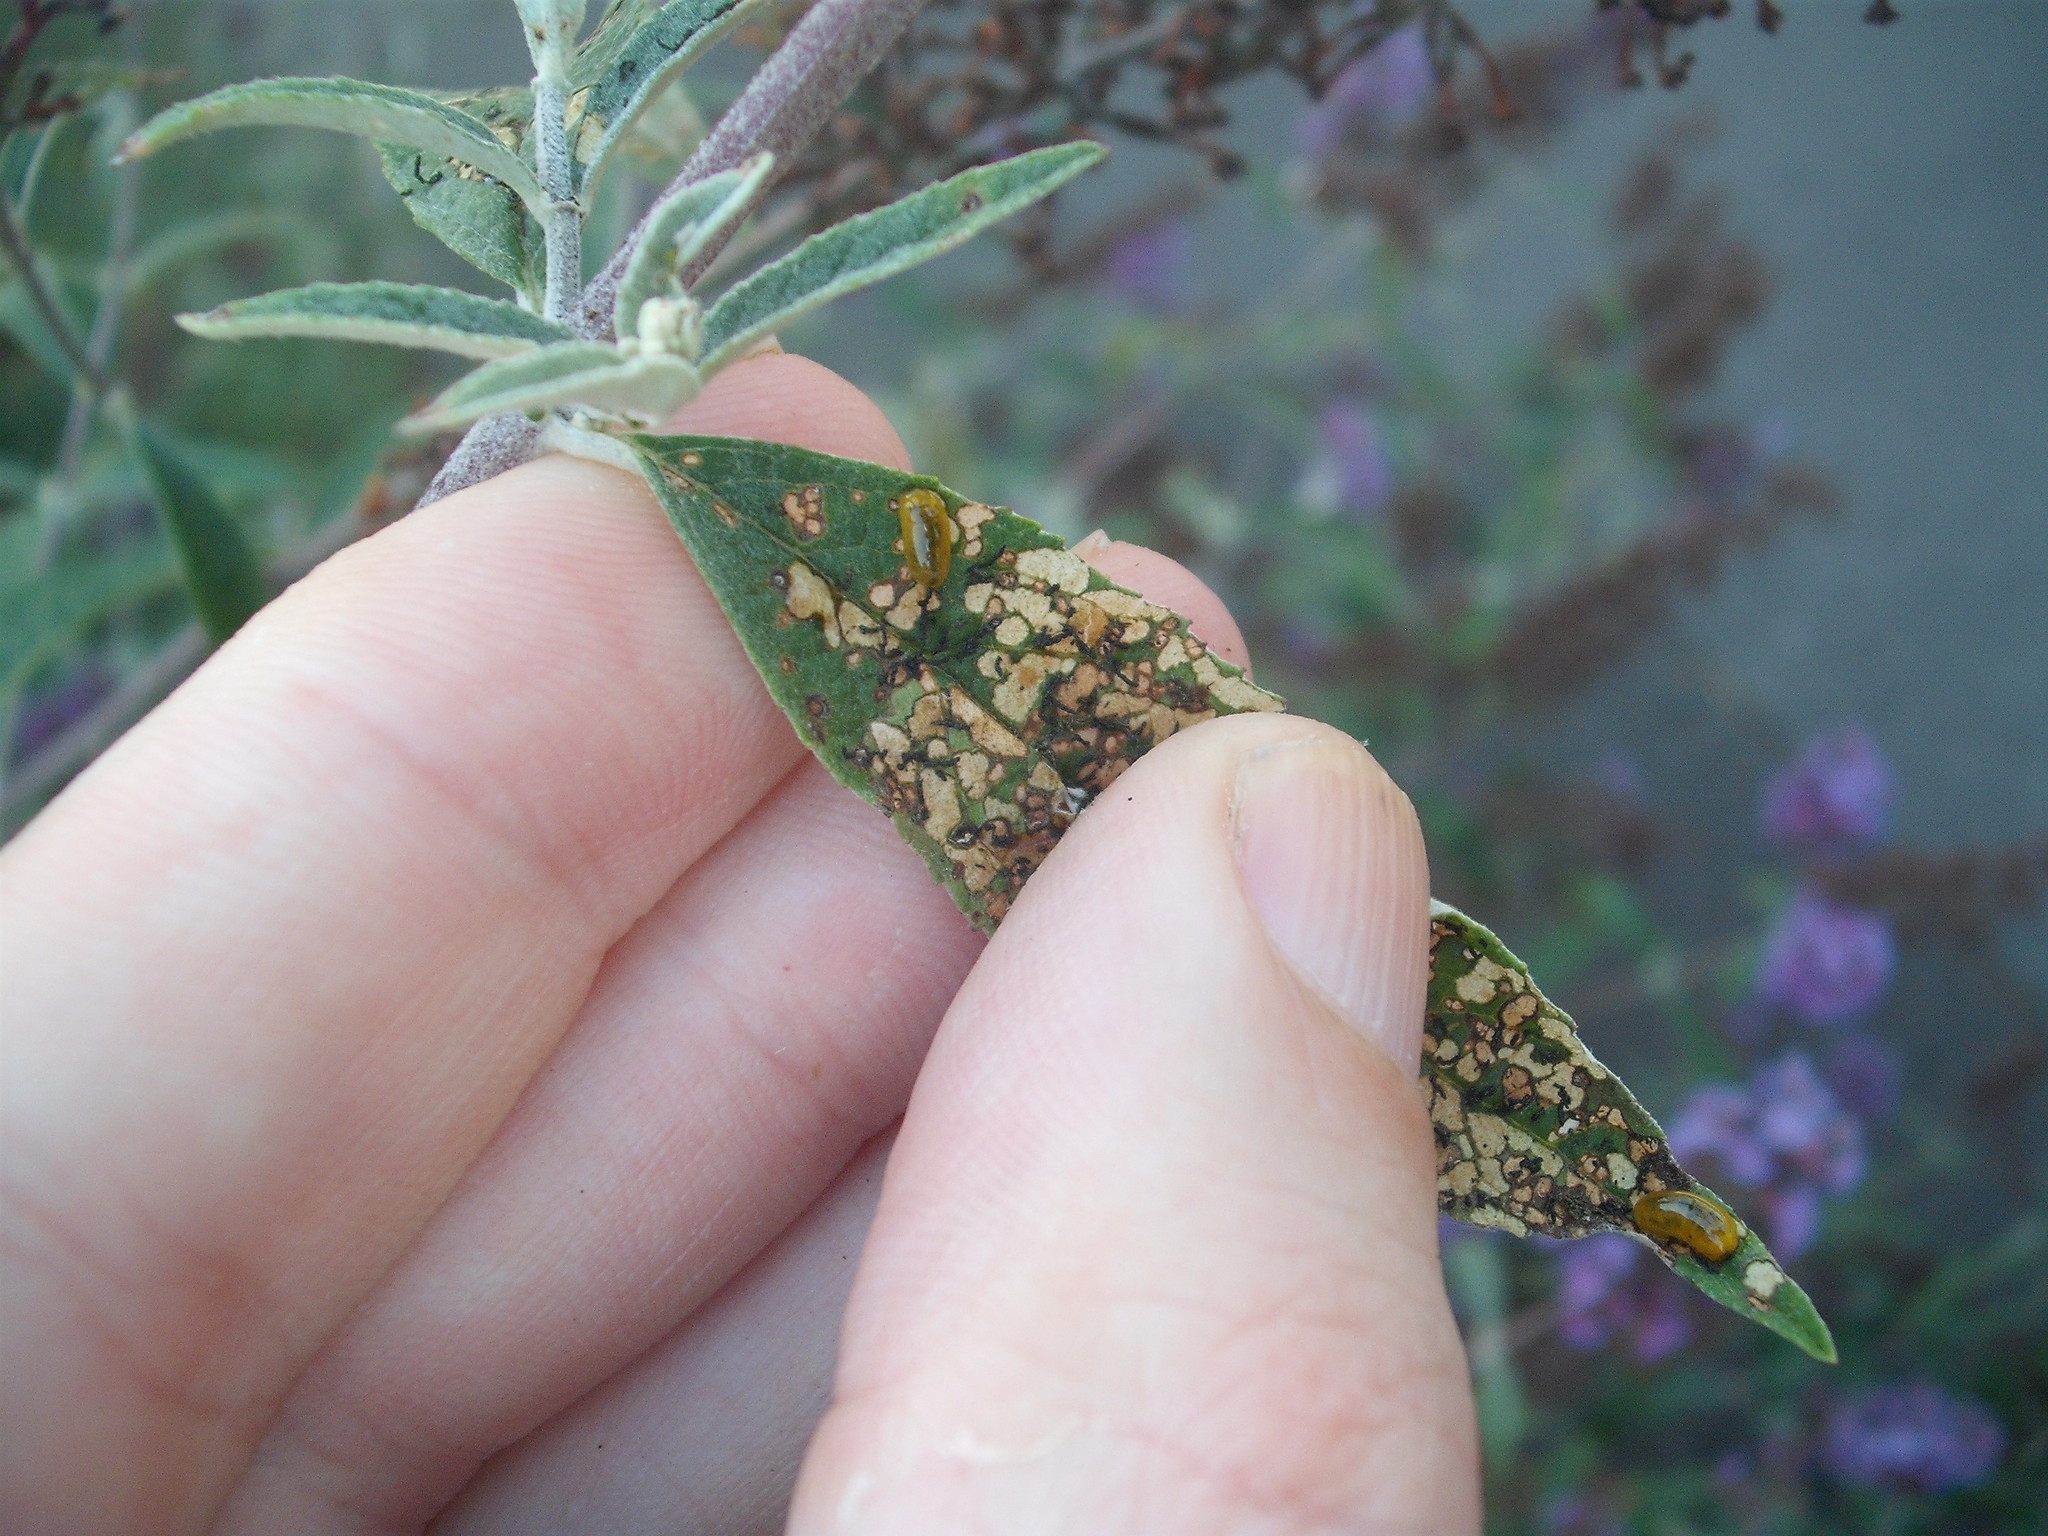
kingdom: Animalia
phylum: Arthropoda
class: Insecta
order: Coleoptera
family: Curculionidae
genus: Cleopus
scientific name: Cleopus japonicus
